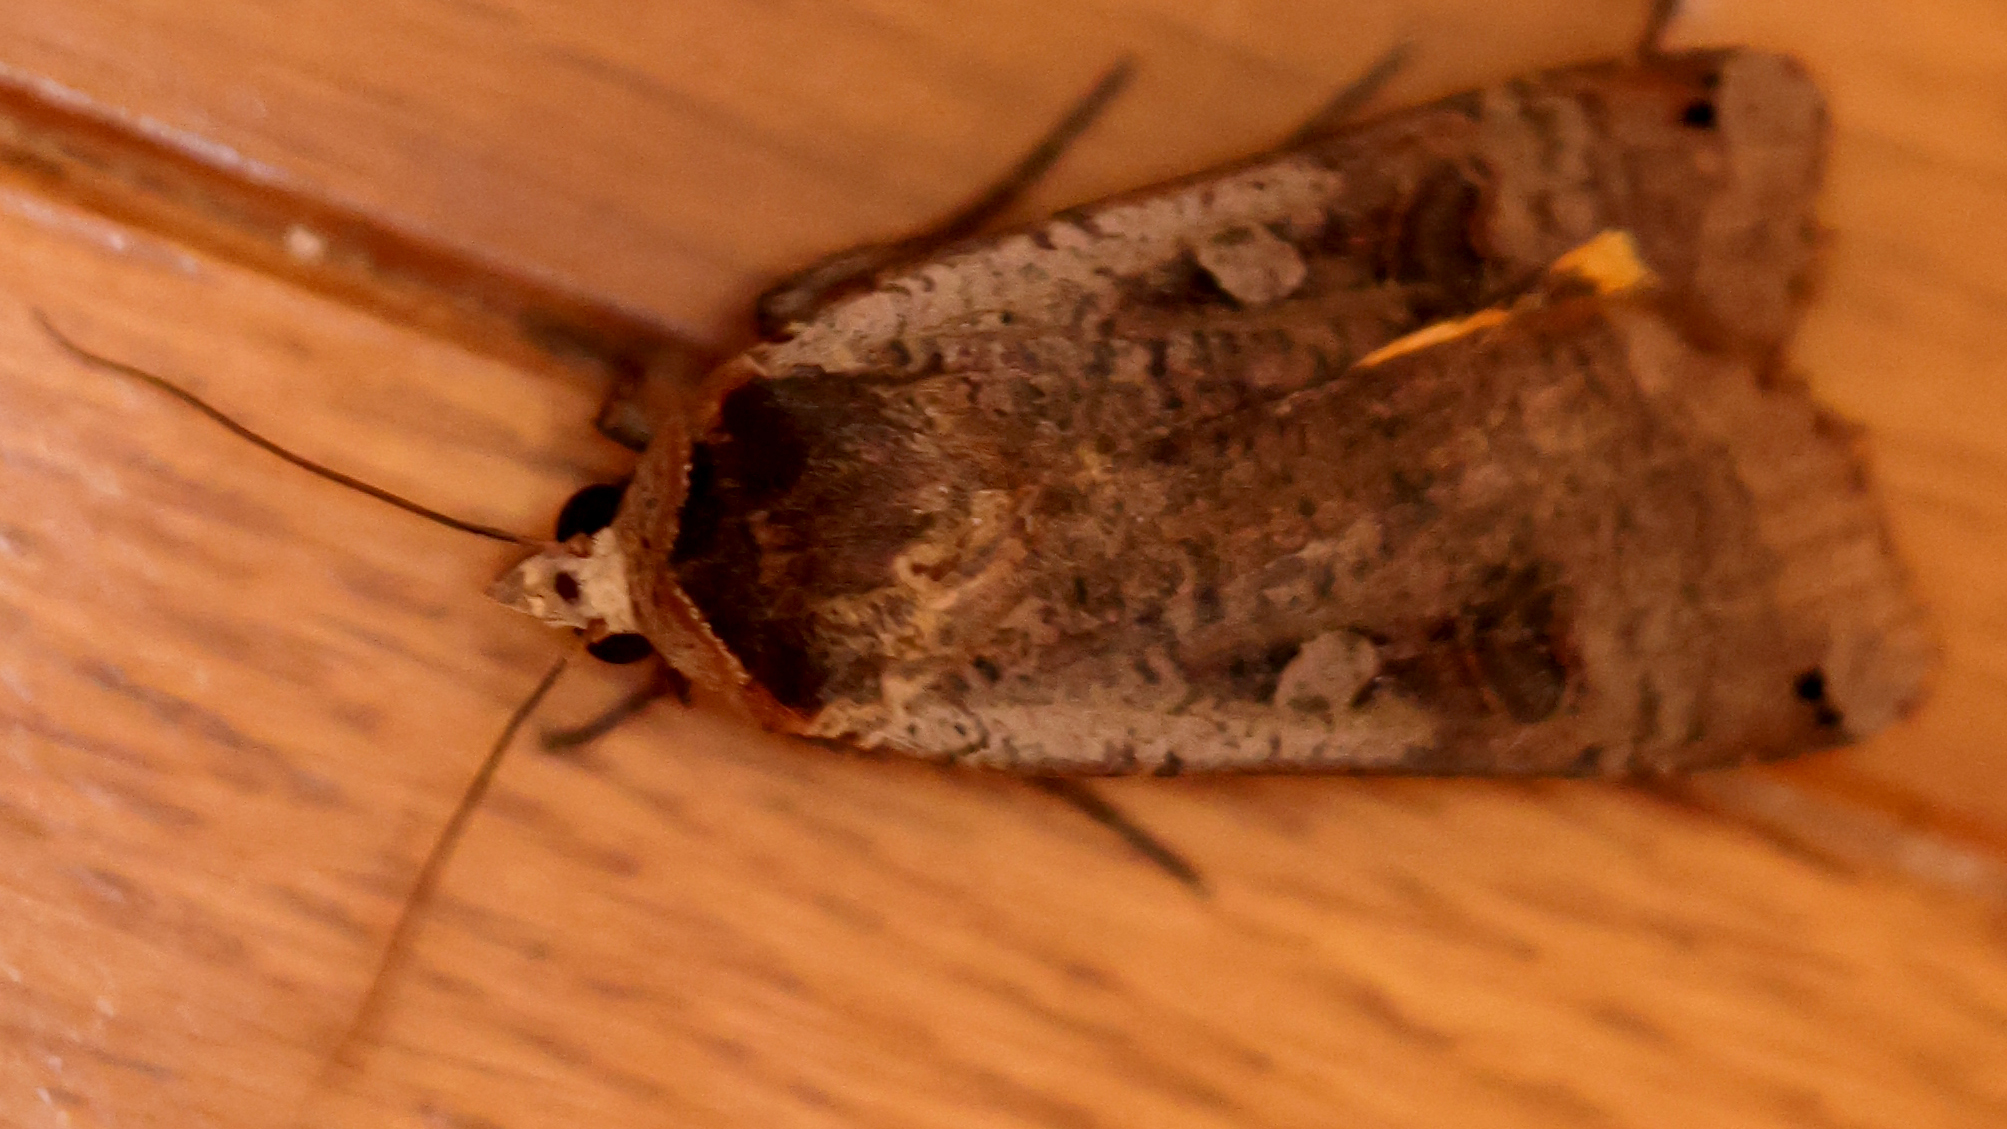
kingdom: Animalia
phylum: Arthropoda
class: Insecta
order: Lepidoptera
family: Noctuidae
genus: Noctua
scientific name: Noctua pronuba
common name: Large yellow underwing
